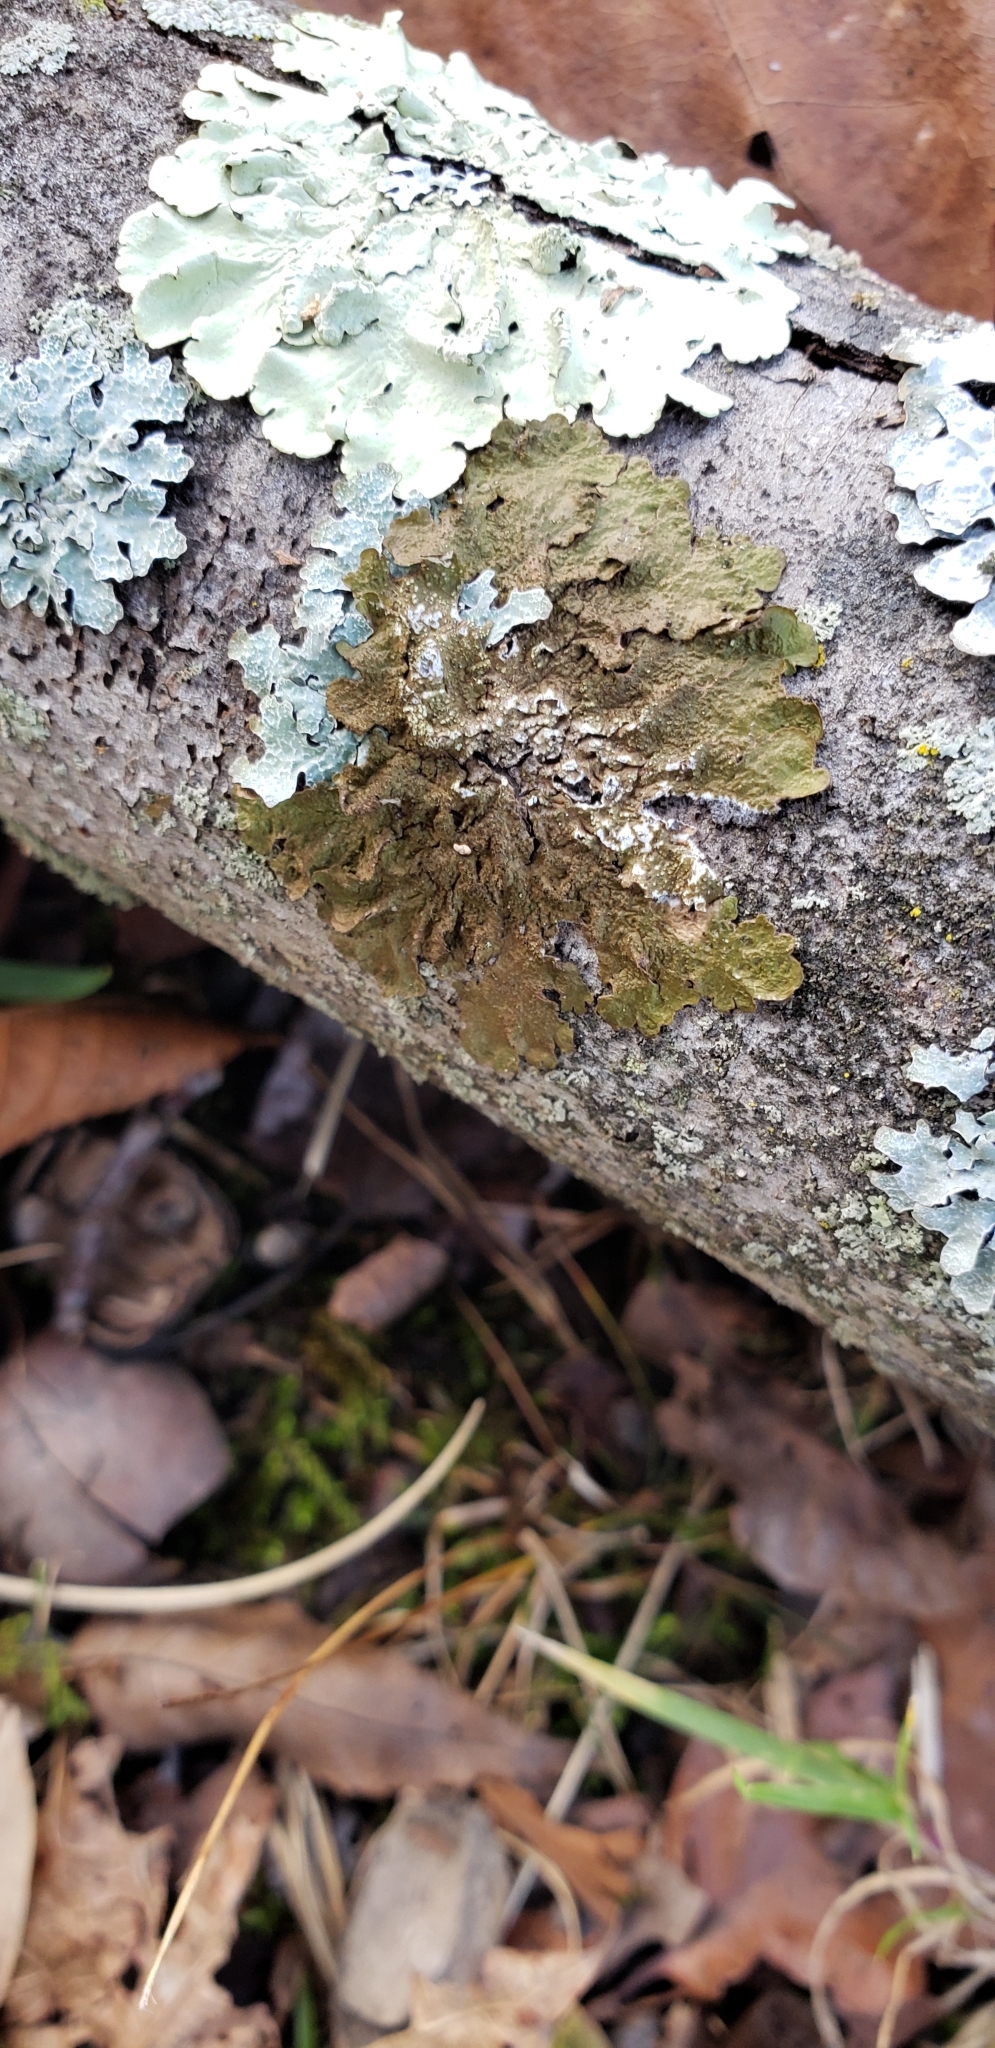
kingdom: Fungi
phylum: Ascomycota
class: Lecanoromycetes
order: Lecanorales
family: Parmeliaceae
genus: Melanelixia
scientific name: Melanelixia subaurifera
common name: Abraded camouflage lichen
